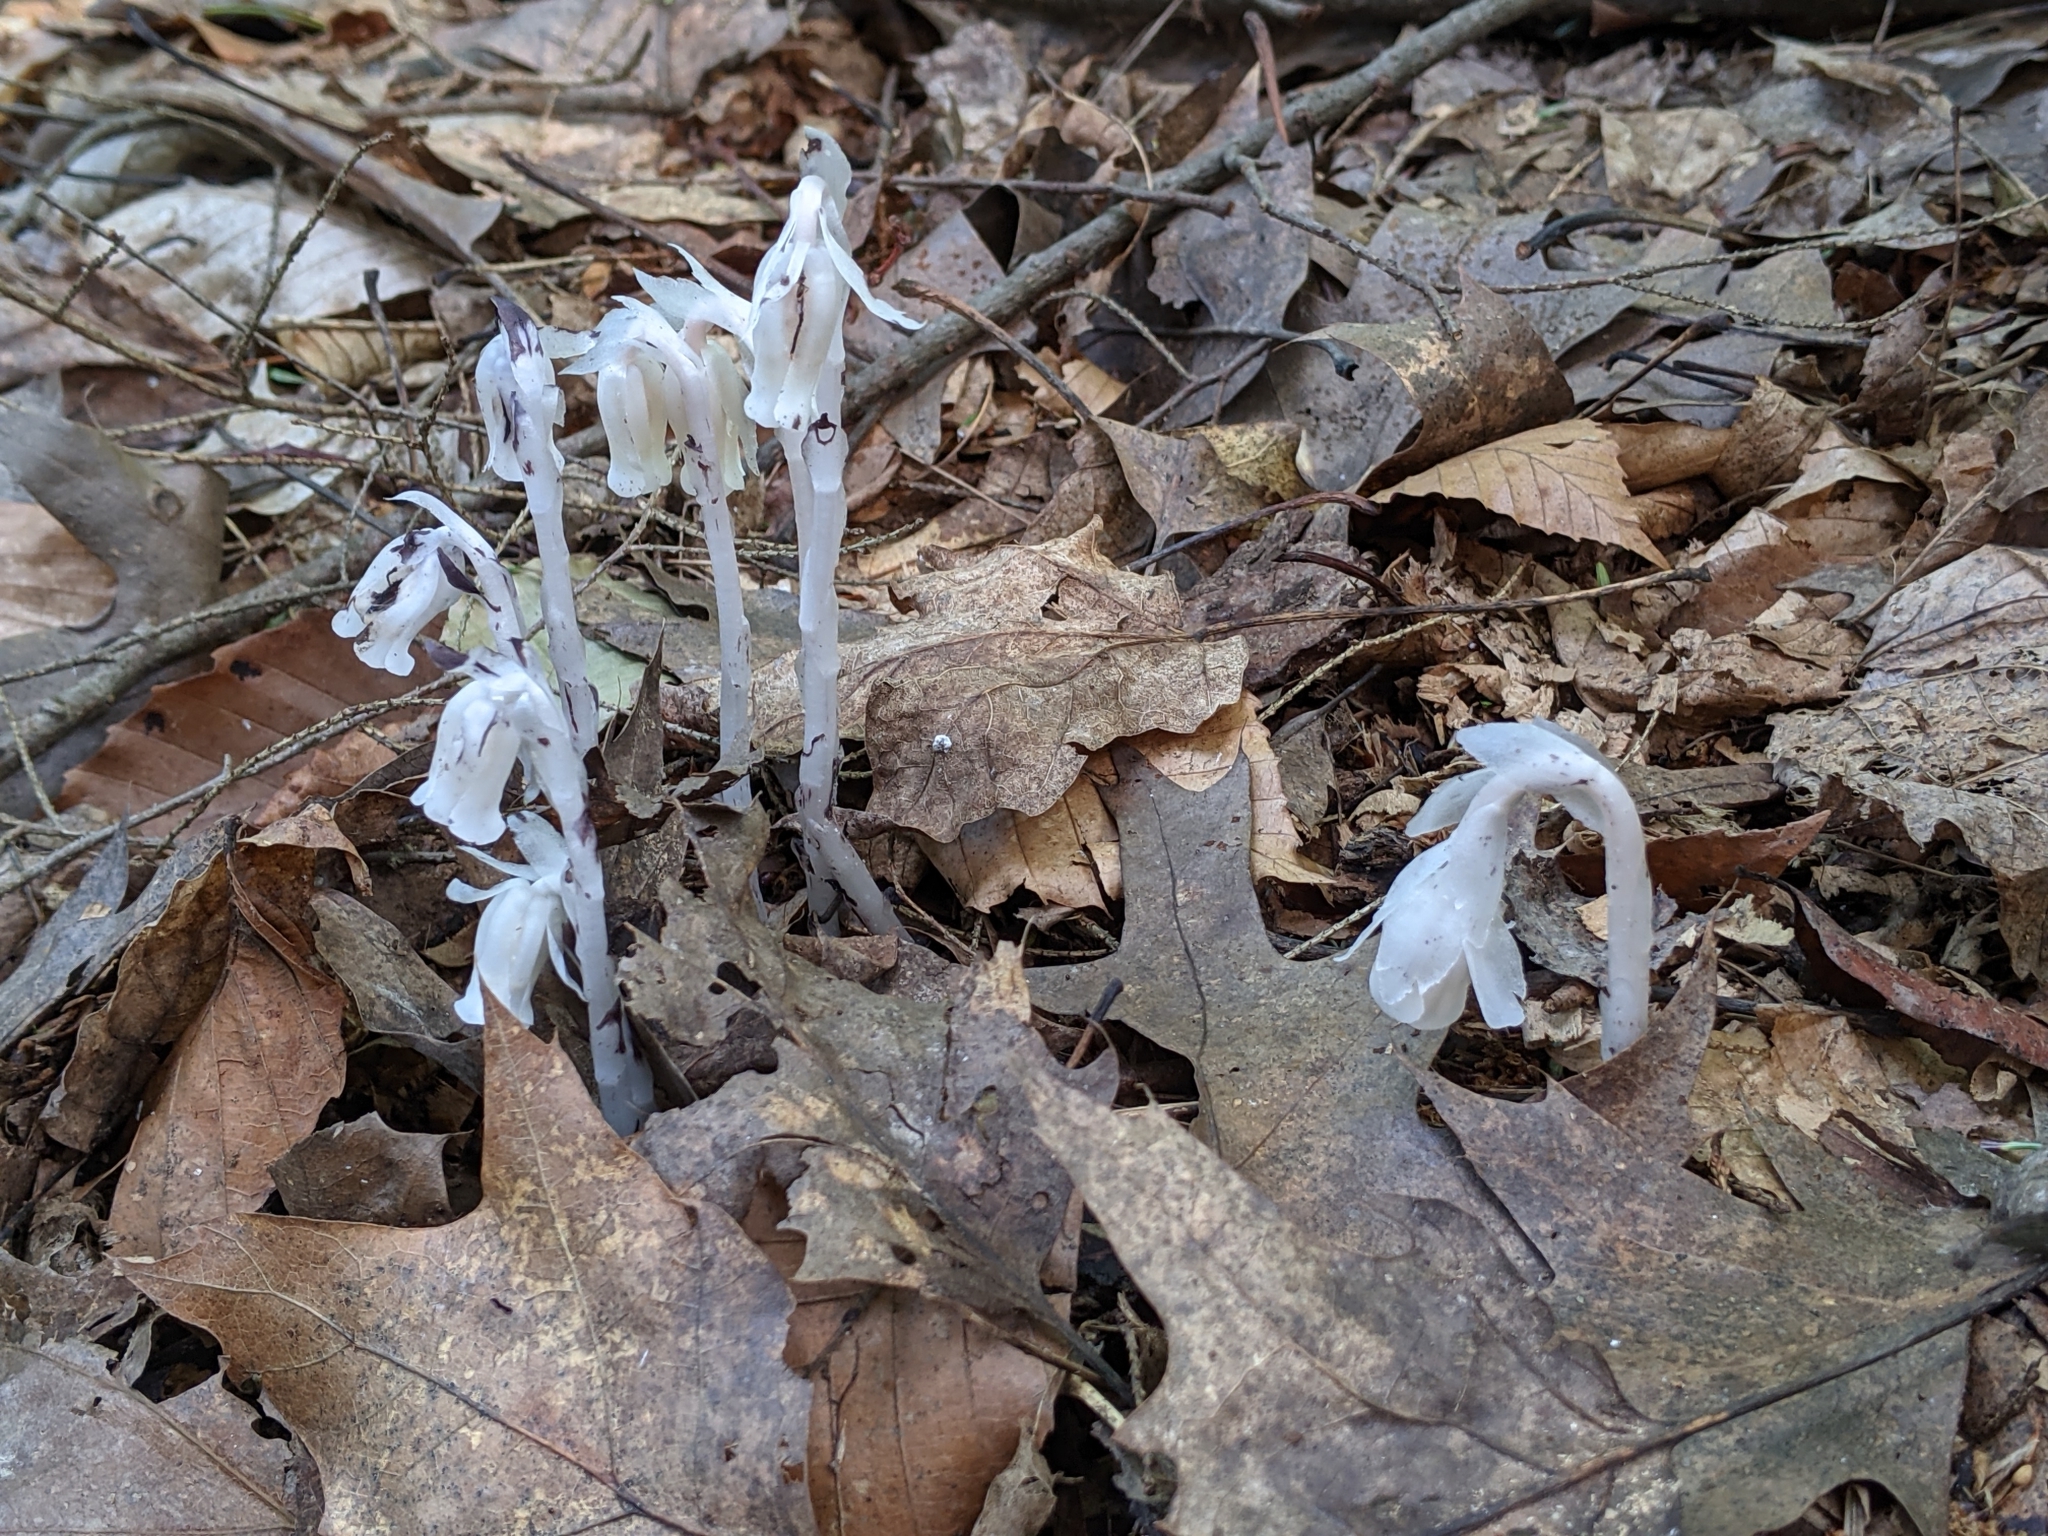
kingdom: Plantae
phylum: Tracheophyta
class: Magnoliopsida
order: Ericales
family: Ericaceae
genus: Monotropa
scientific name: Monotropa uniflora
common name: Convulsion root
